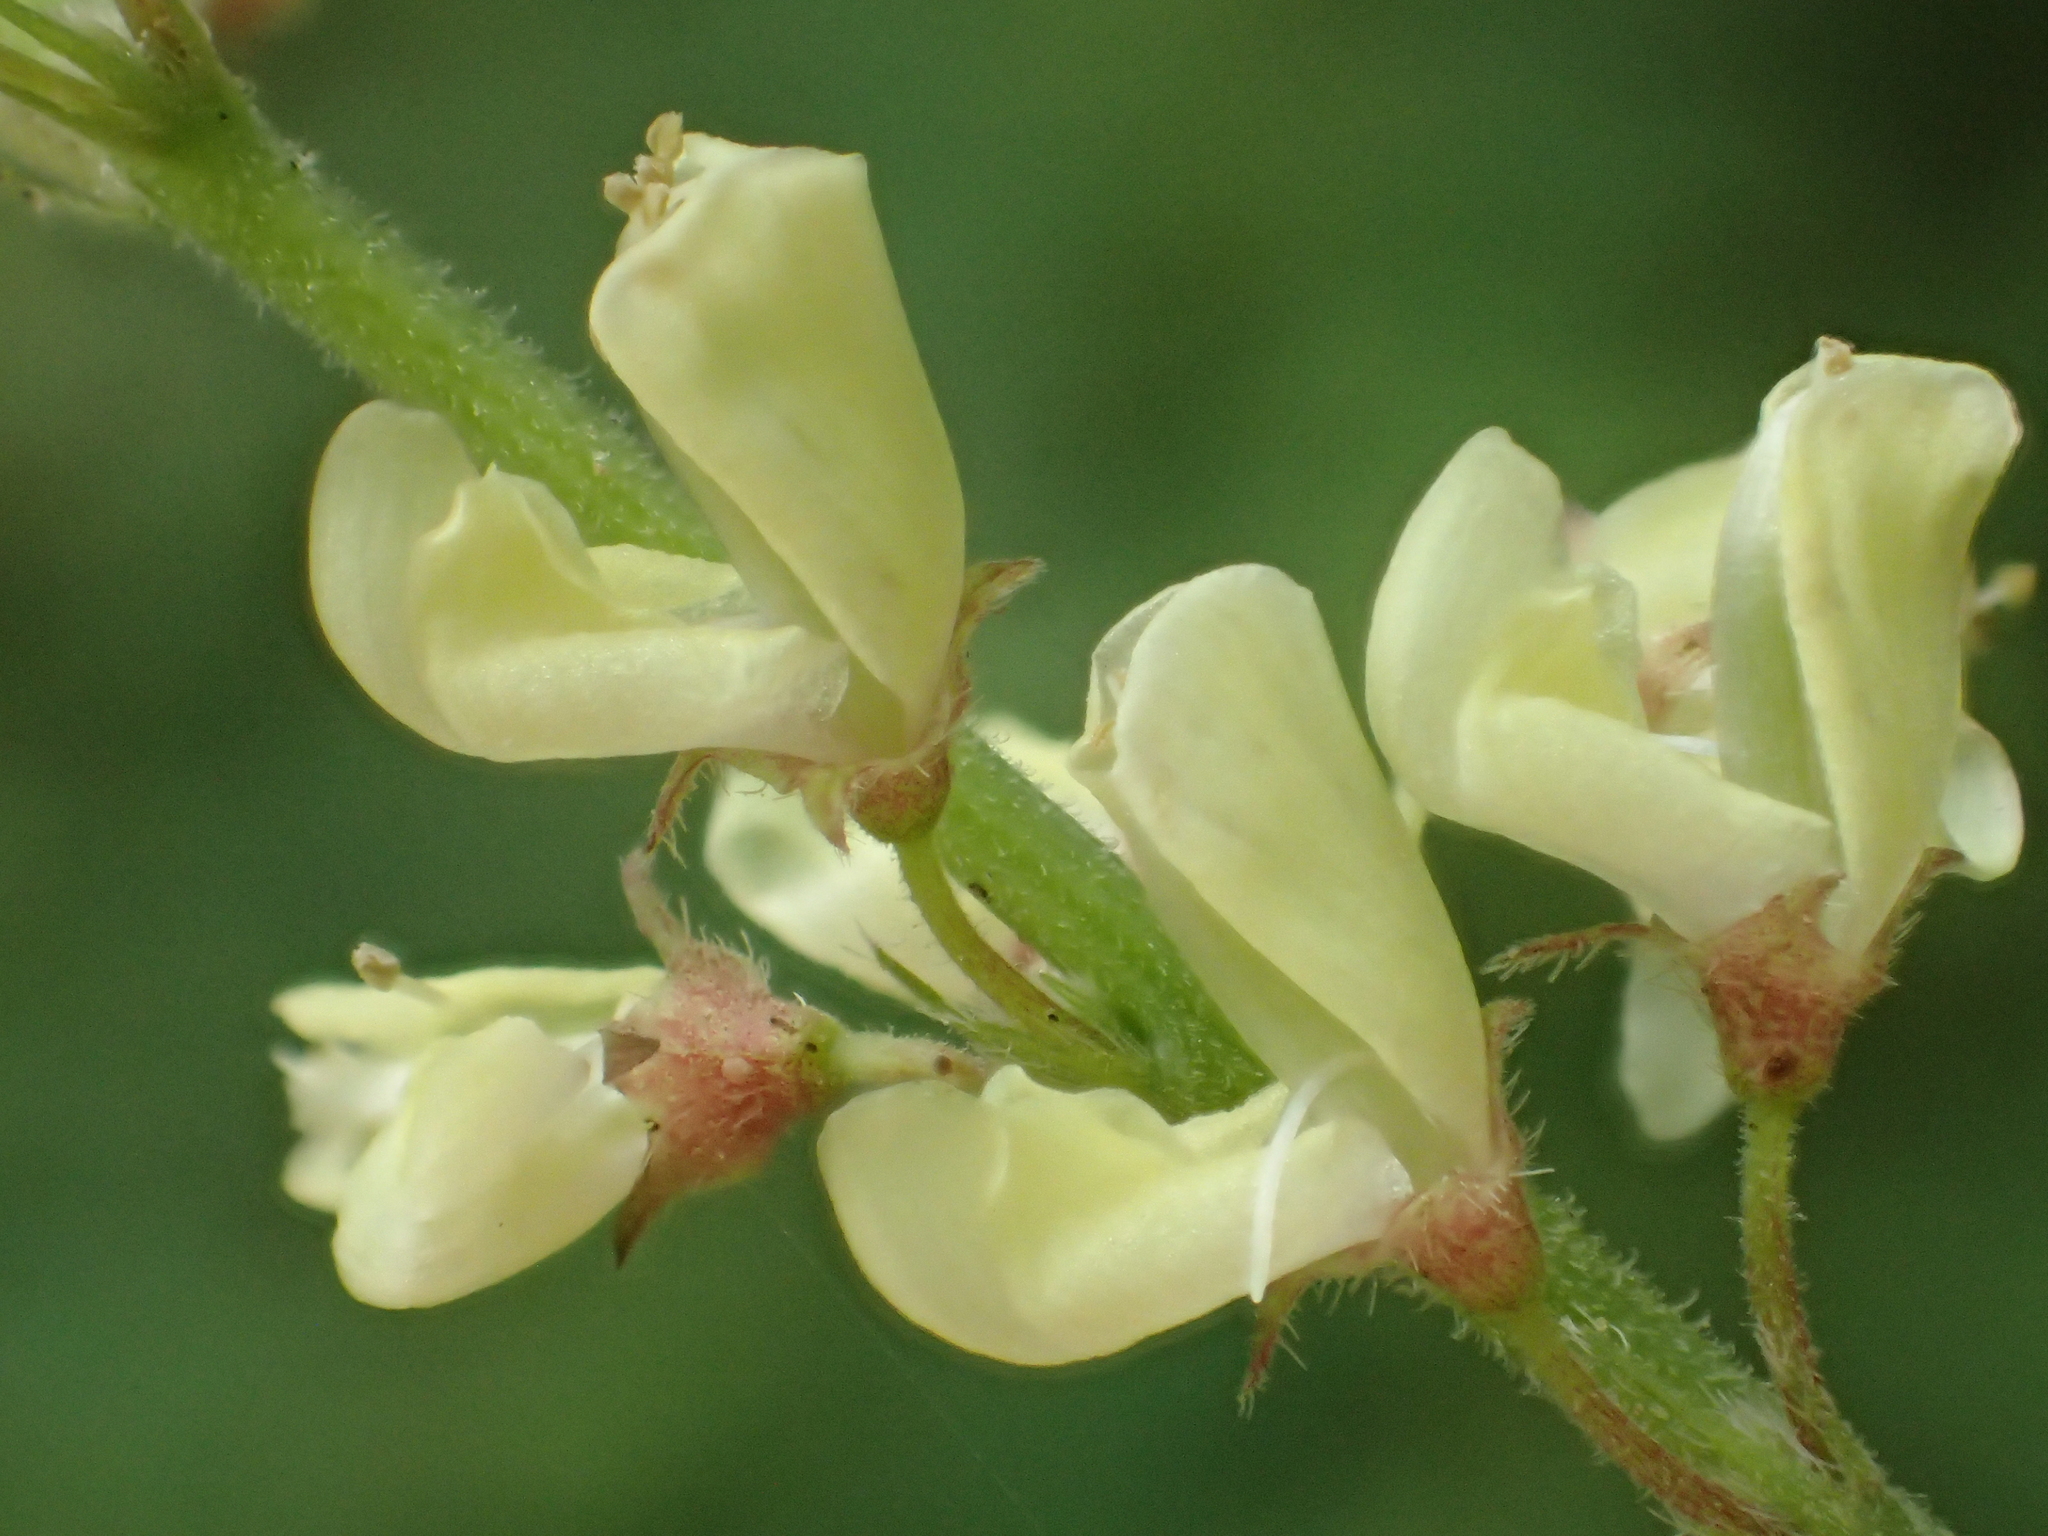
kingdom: Plantae
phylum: Tracheophyta
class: Magnoliopsida
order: Fabales
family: Fabaceae
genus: Pleurolobus
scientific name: Pleurolobus gangeticus
